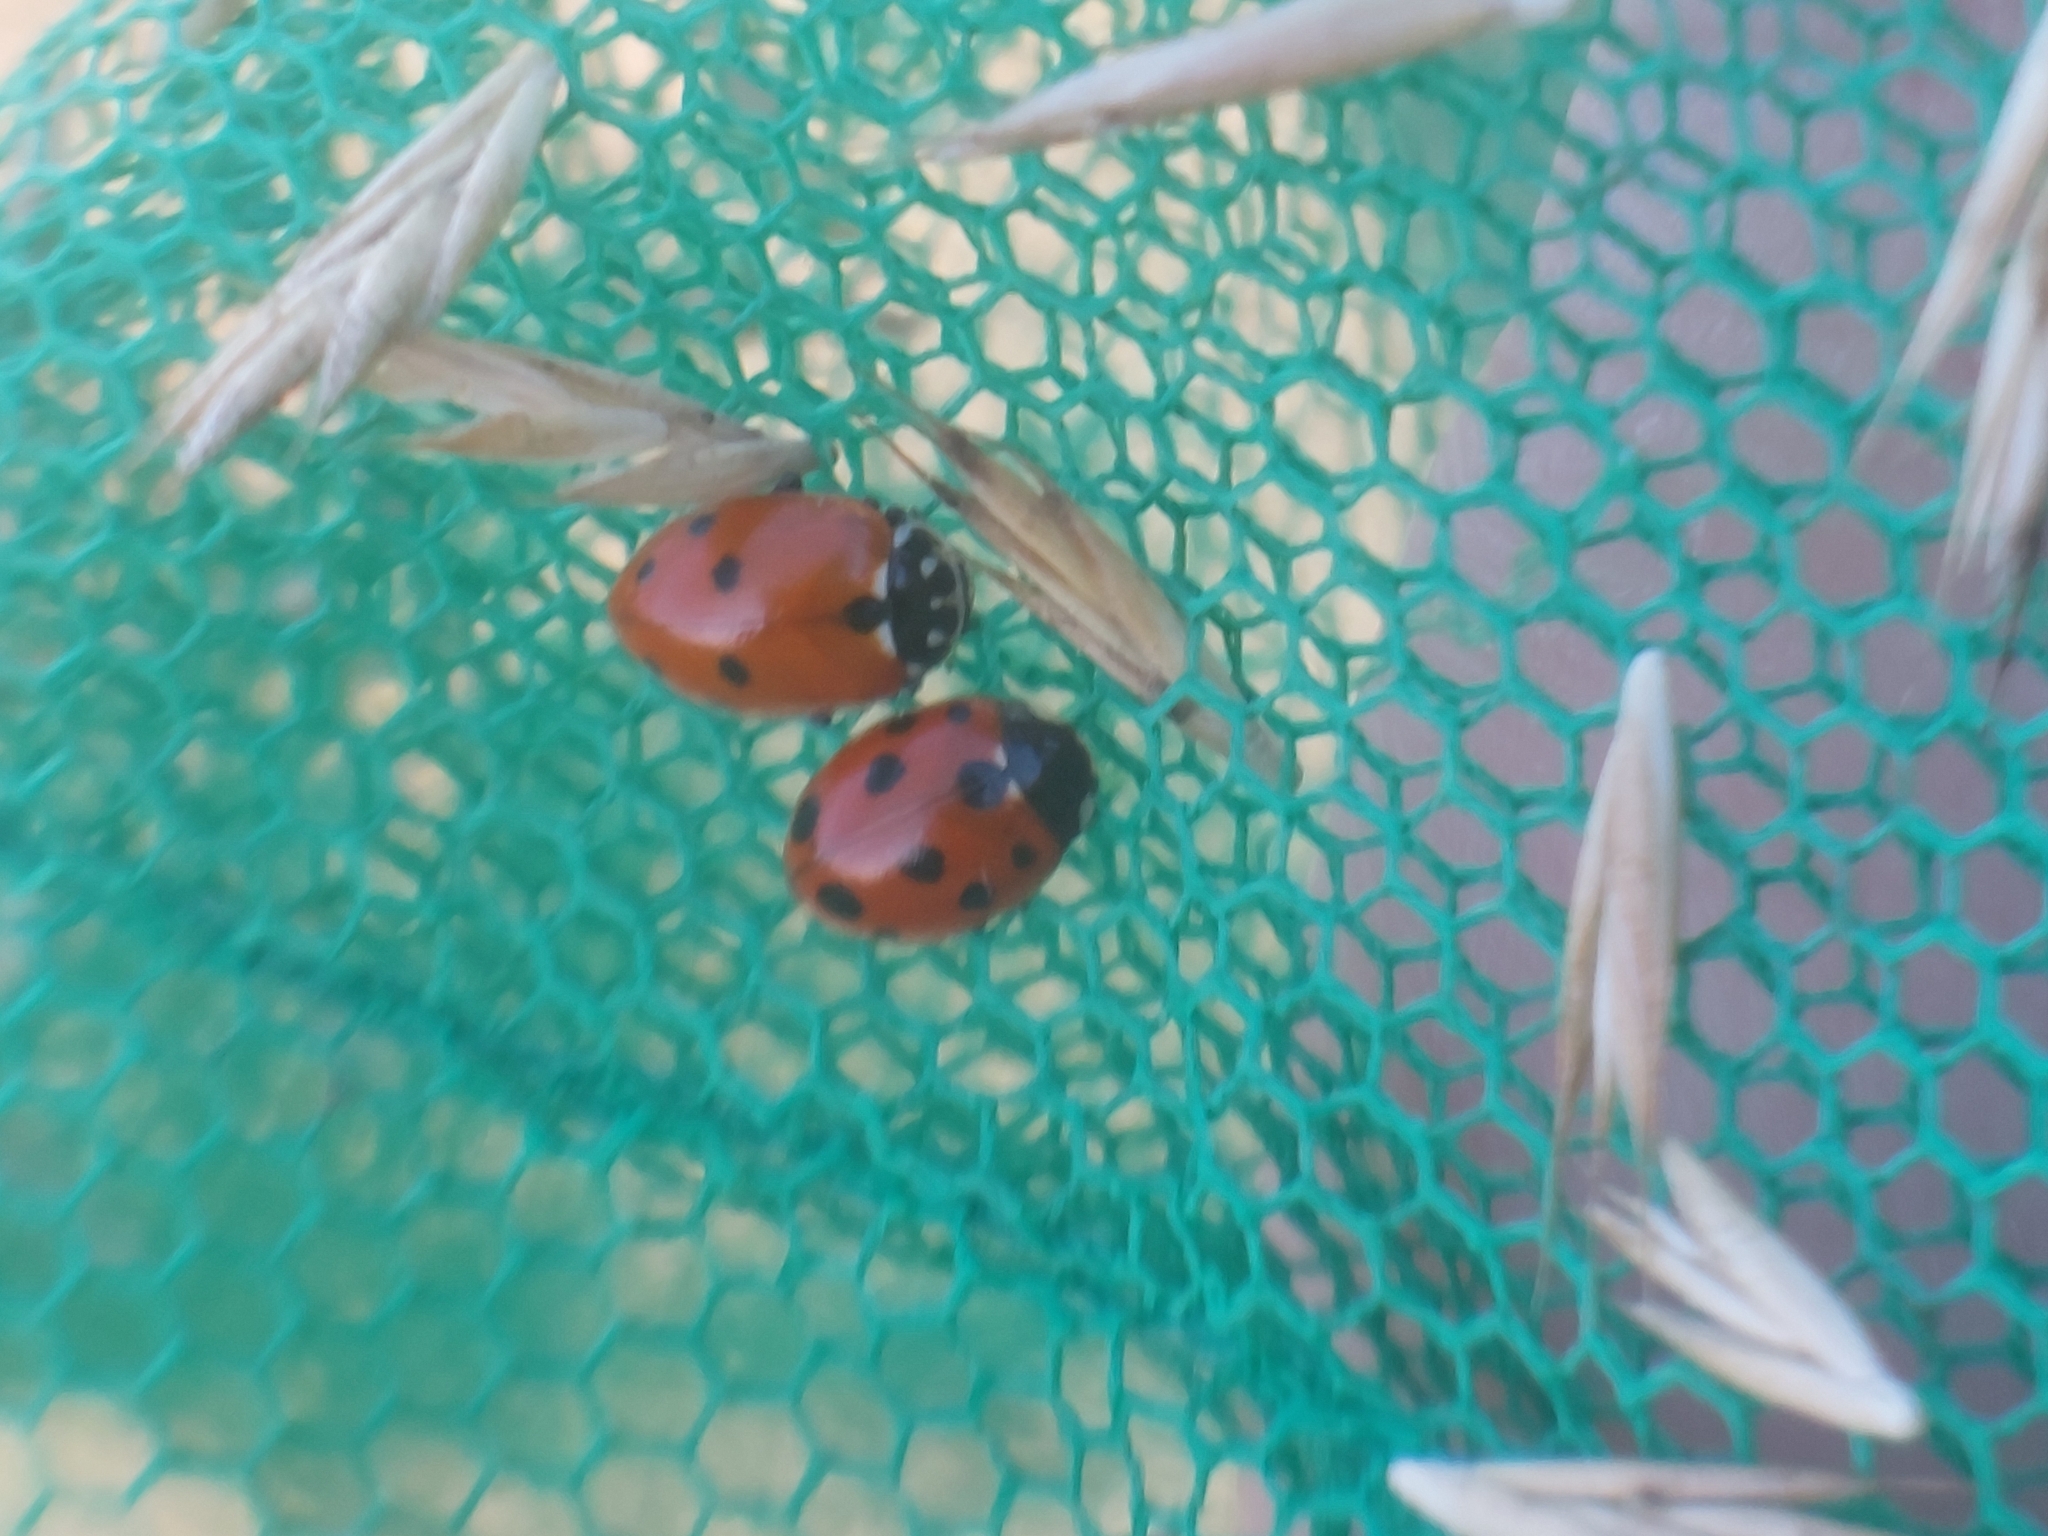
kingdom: Animalia
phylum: Arthropoda
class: Insecta
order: Coleoptera
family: Coccinellidae
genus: Coccinella
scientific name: Coccinella undecimpunctata
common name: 11-spot ladybird
